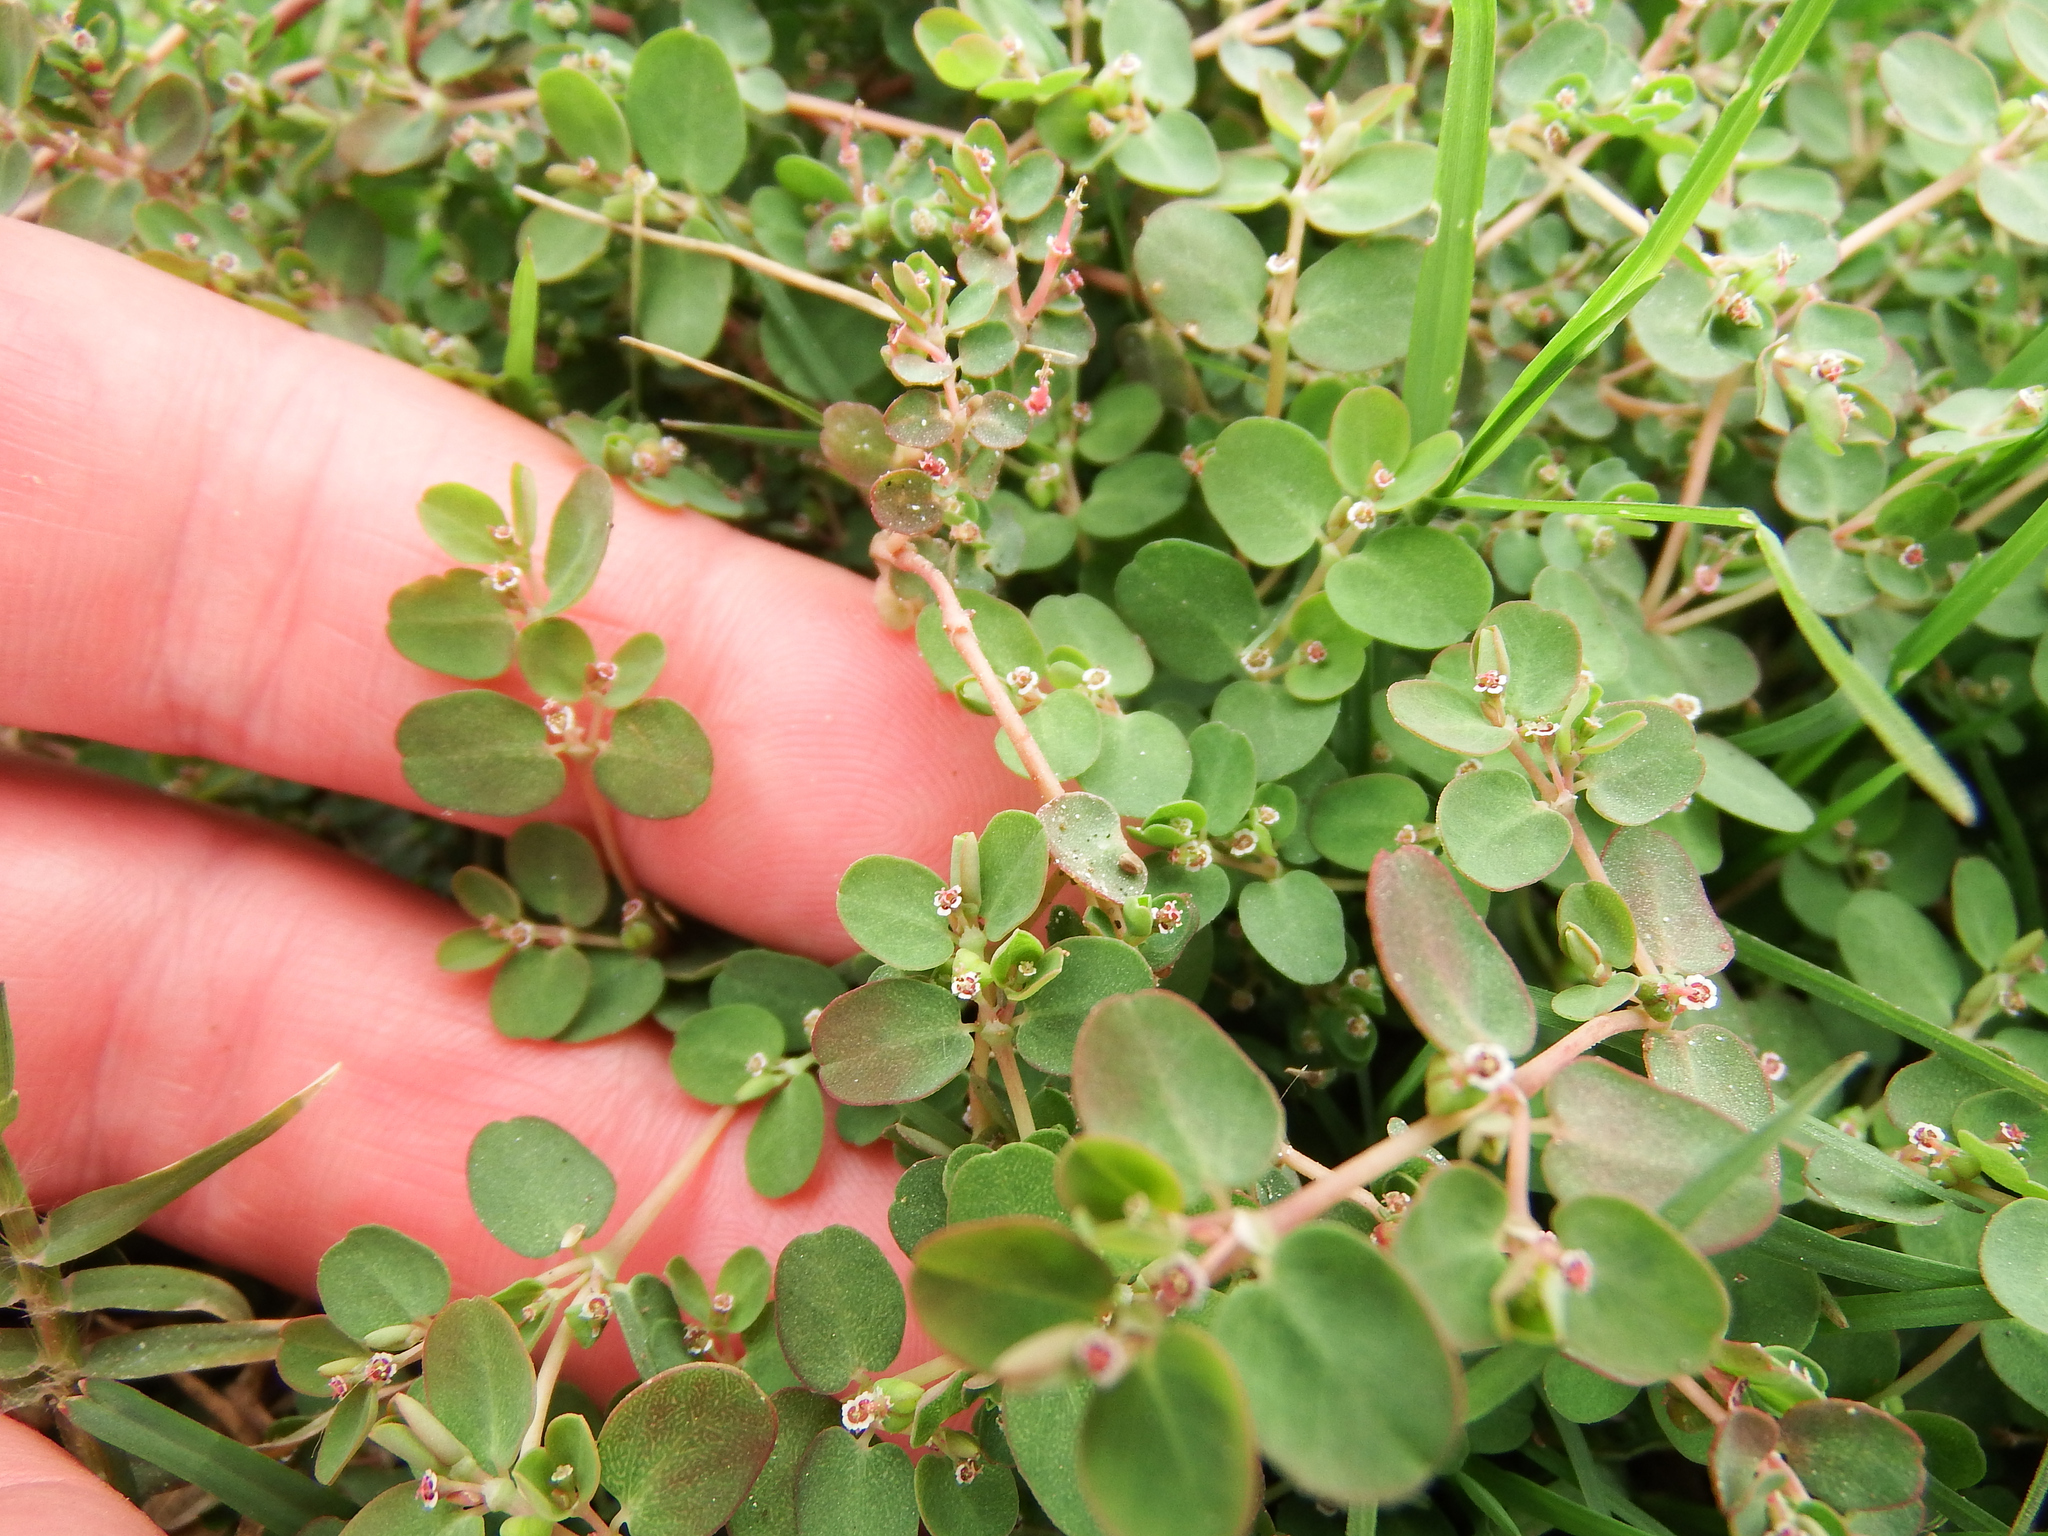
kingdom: Plantae
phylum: Tracheophyta
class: Magnoliopsida
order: Malpighiales
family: Euphorbiaceae
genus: Euphorbia
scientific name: Euphorbia serpens
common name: Matted sandmat
